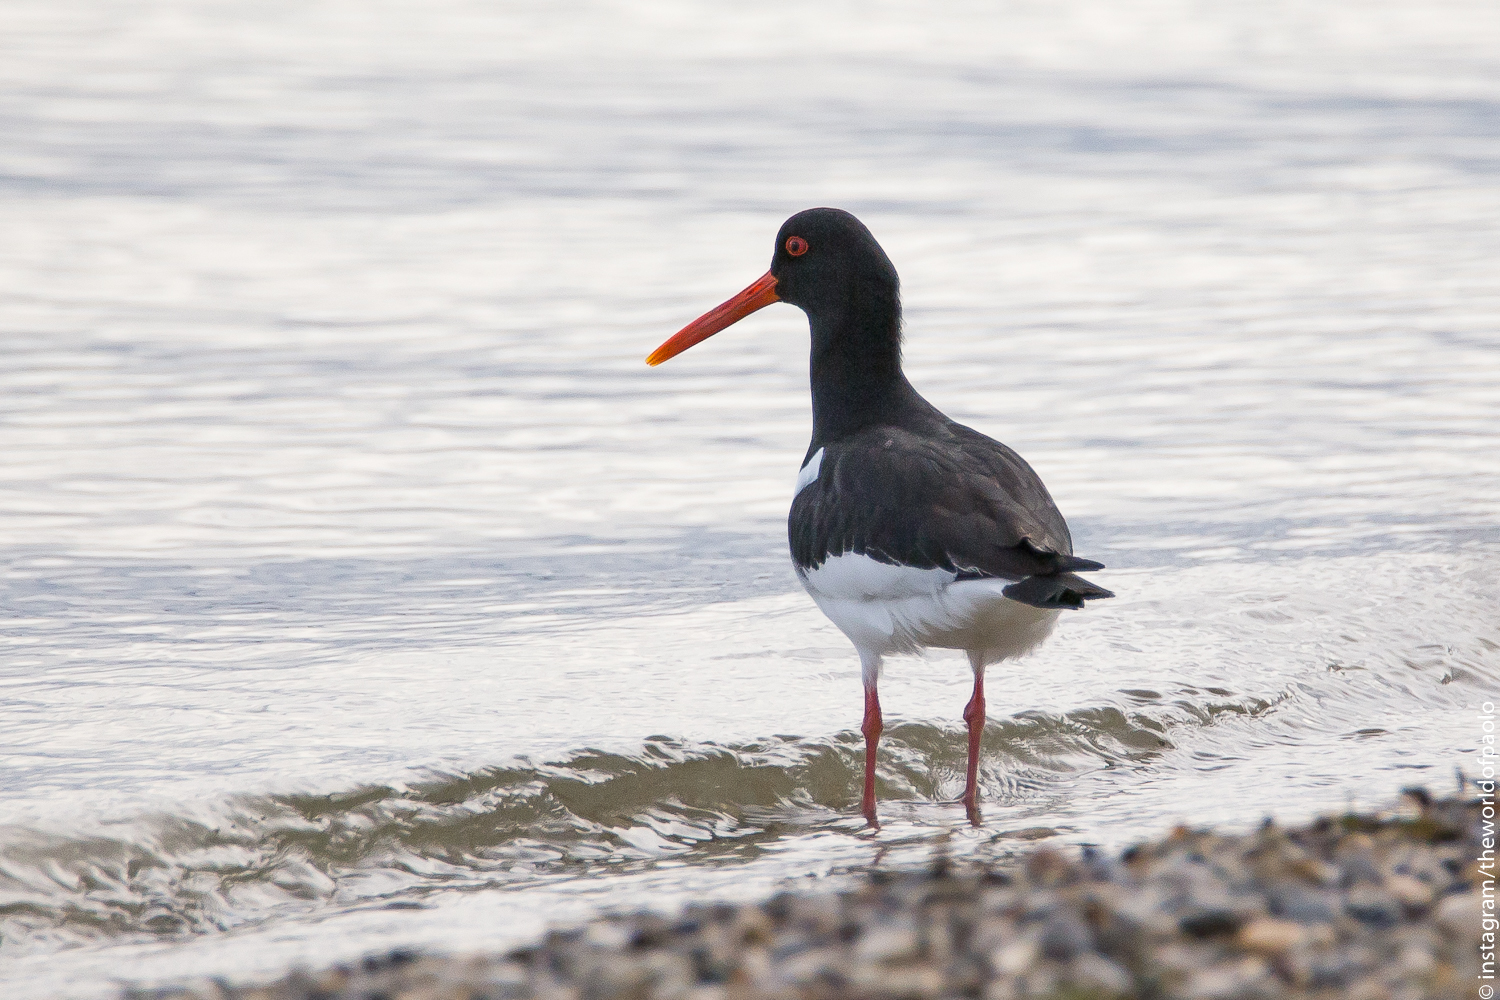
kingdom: Animalia
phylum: Chordata
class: Aves
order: Charadriiformes
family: Haematopodidae
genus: Haematopus
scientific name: Haematopus ostralegus
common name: Eurasian oystercatcher
